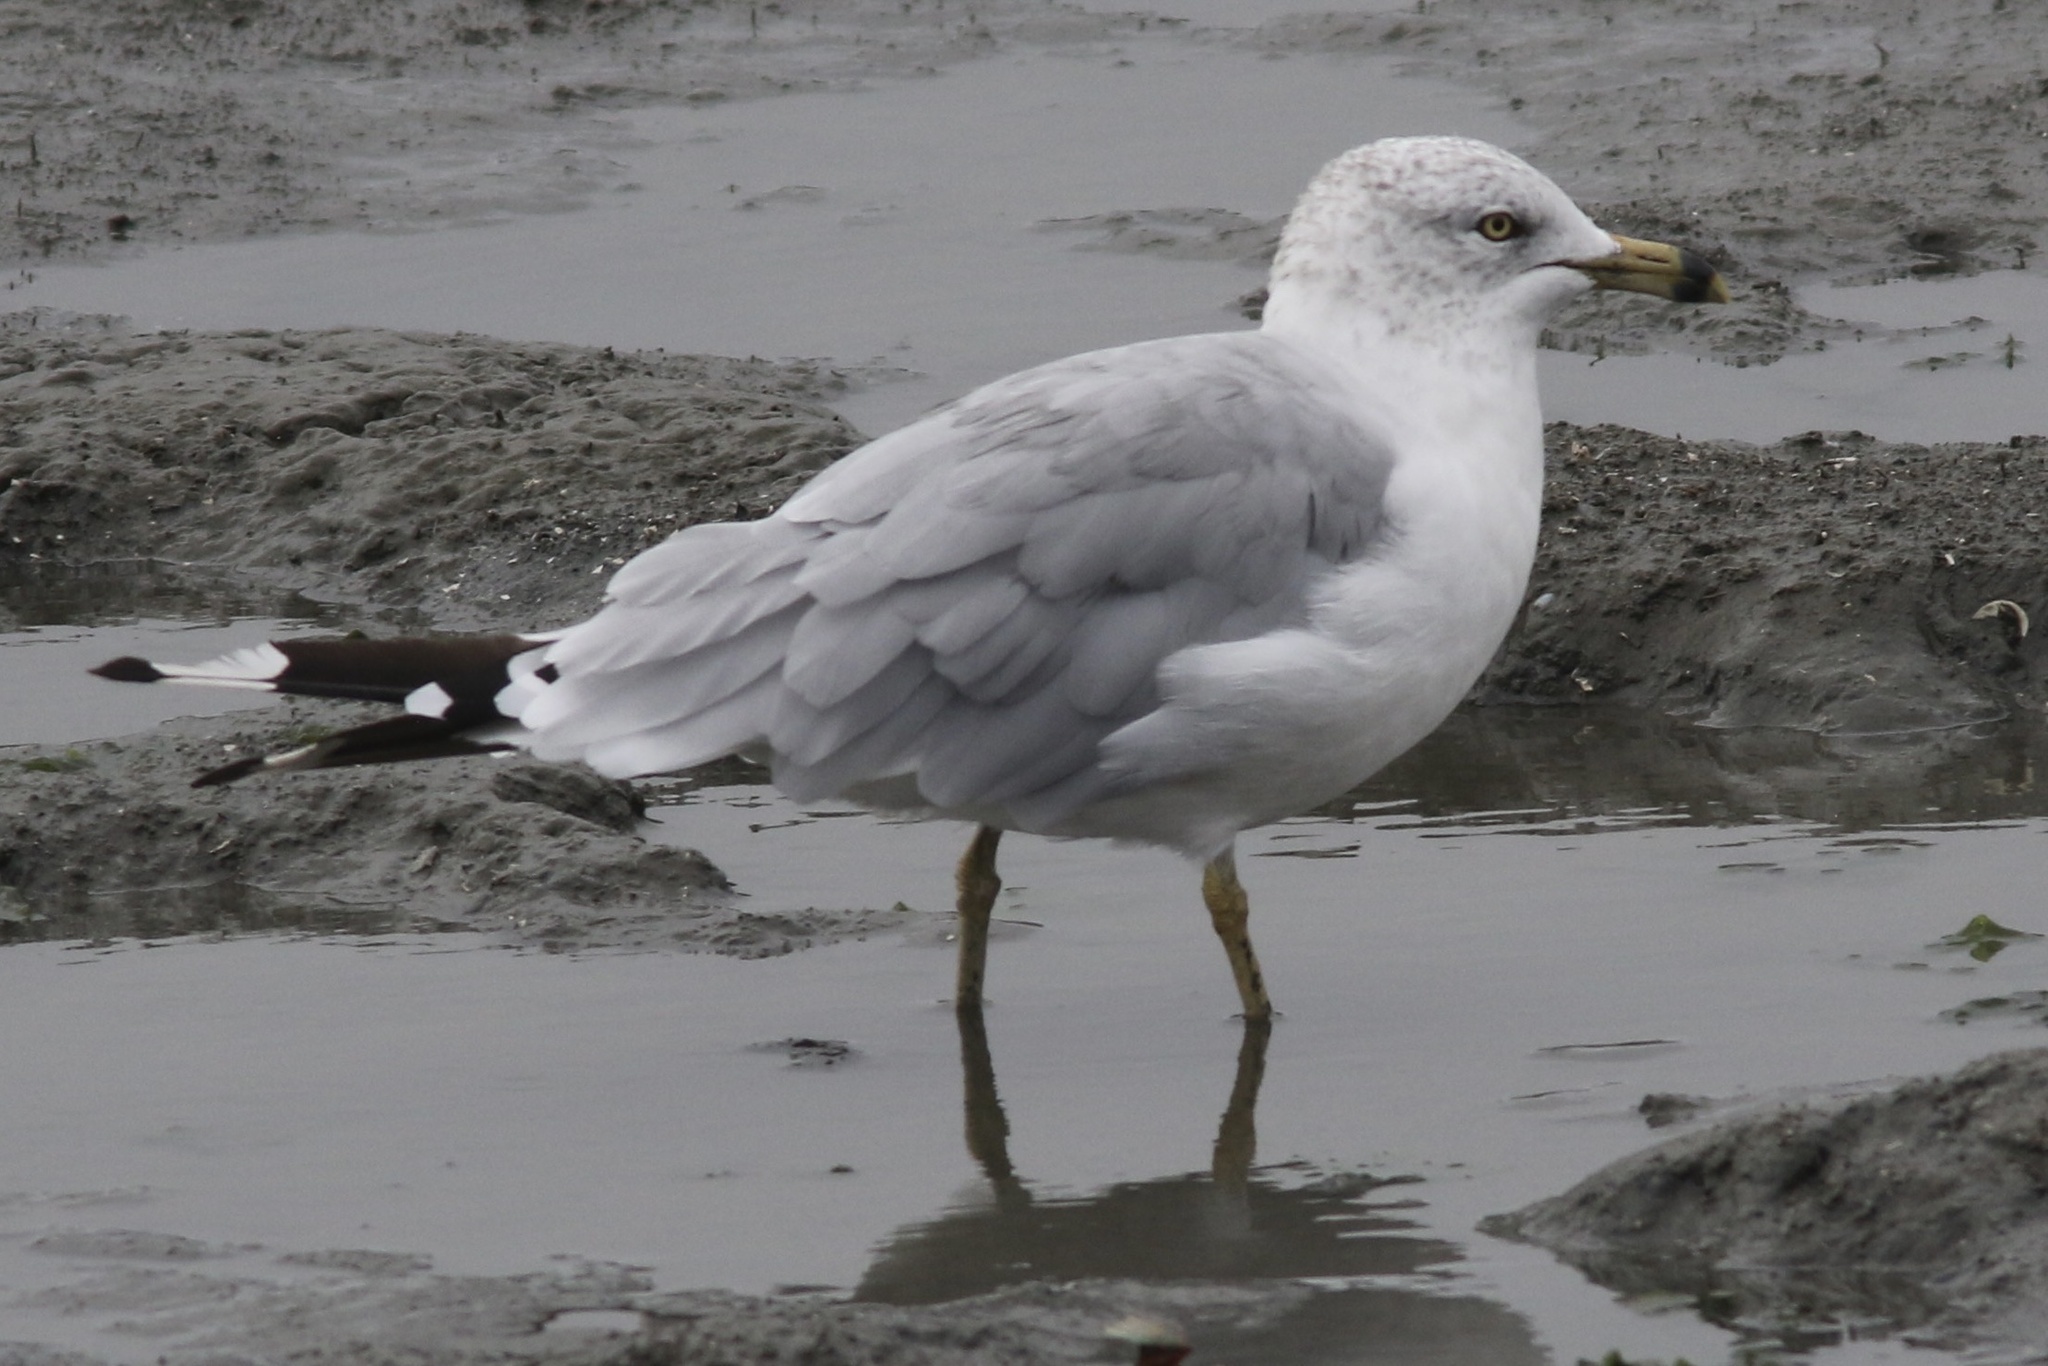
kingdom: Animalia
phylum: Chordata
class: Aves
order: Charadriiformes
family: Laridae
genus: Larus
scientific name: Larus delawarensis
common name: Ring-billed gull
